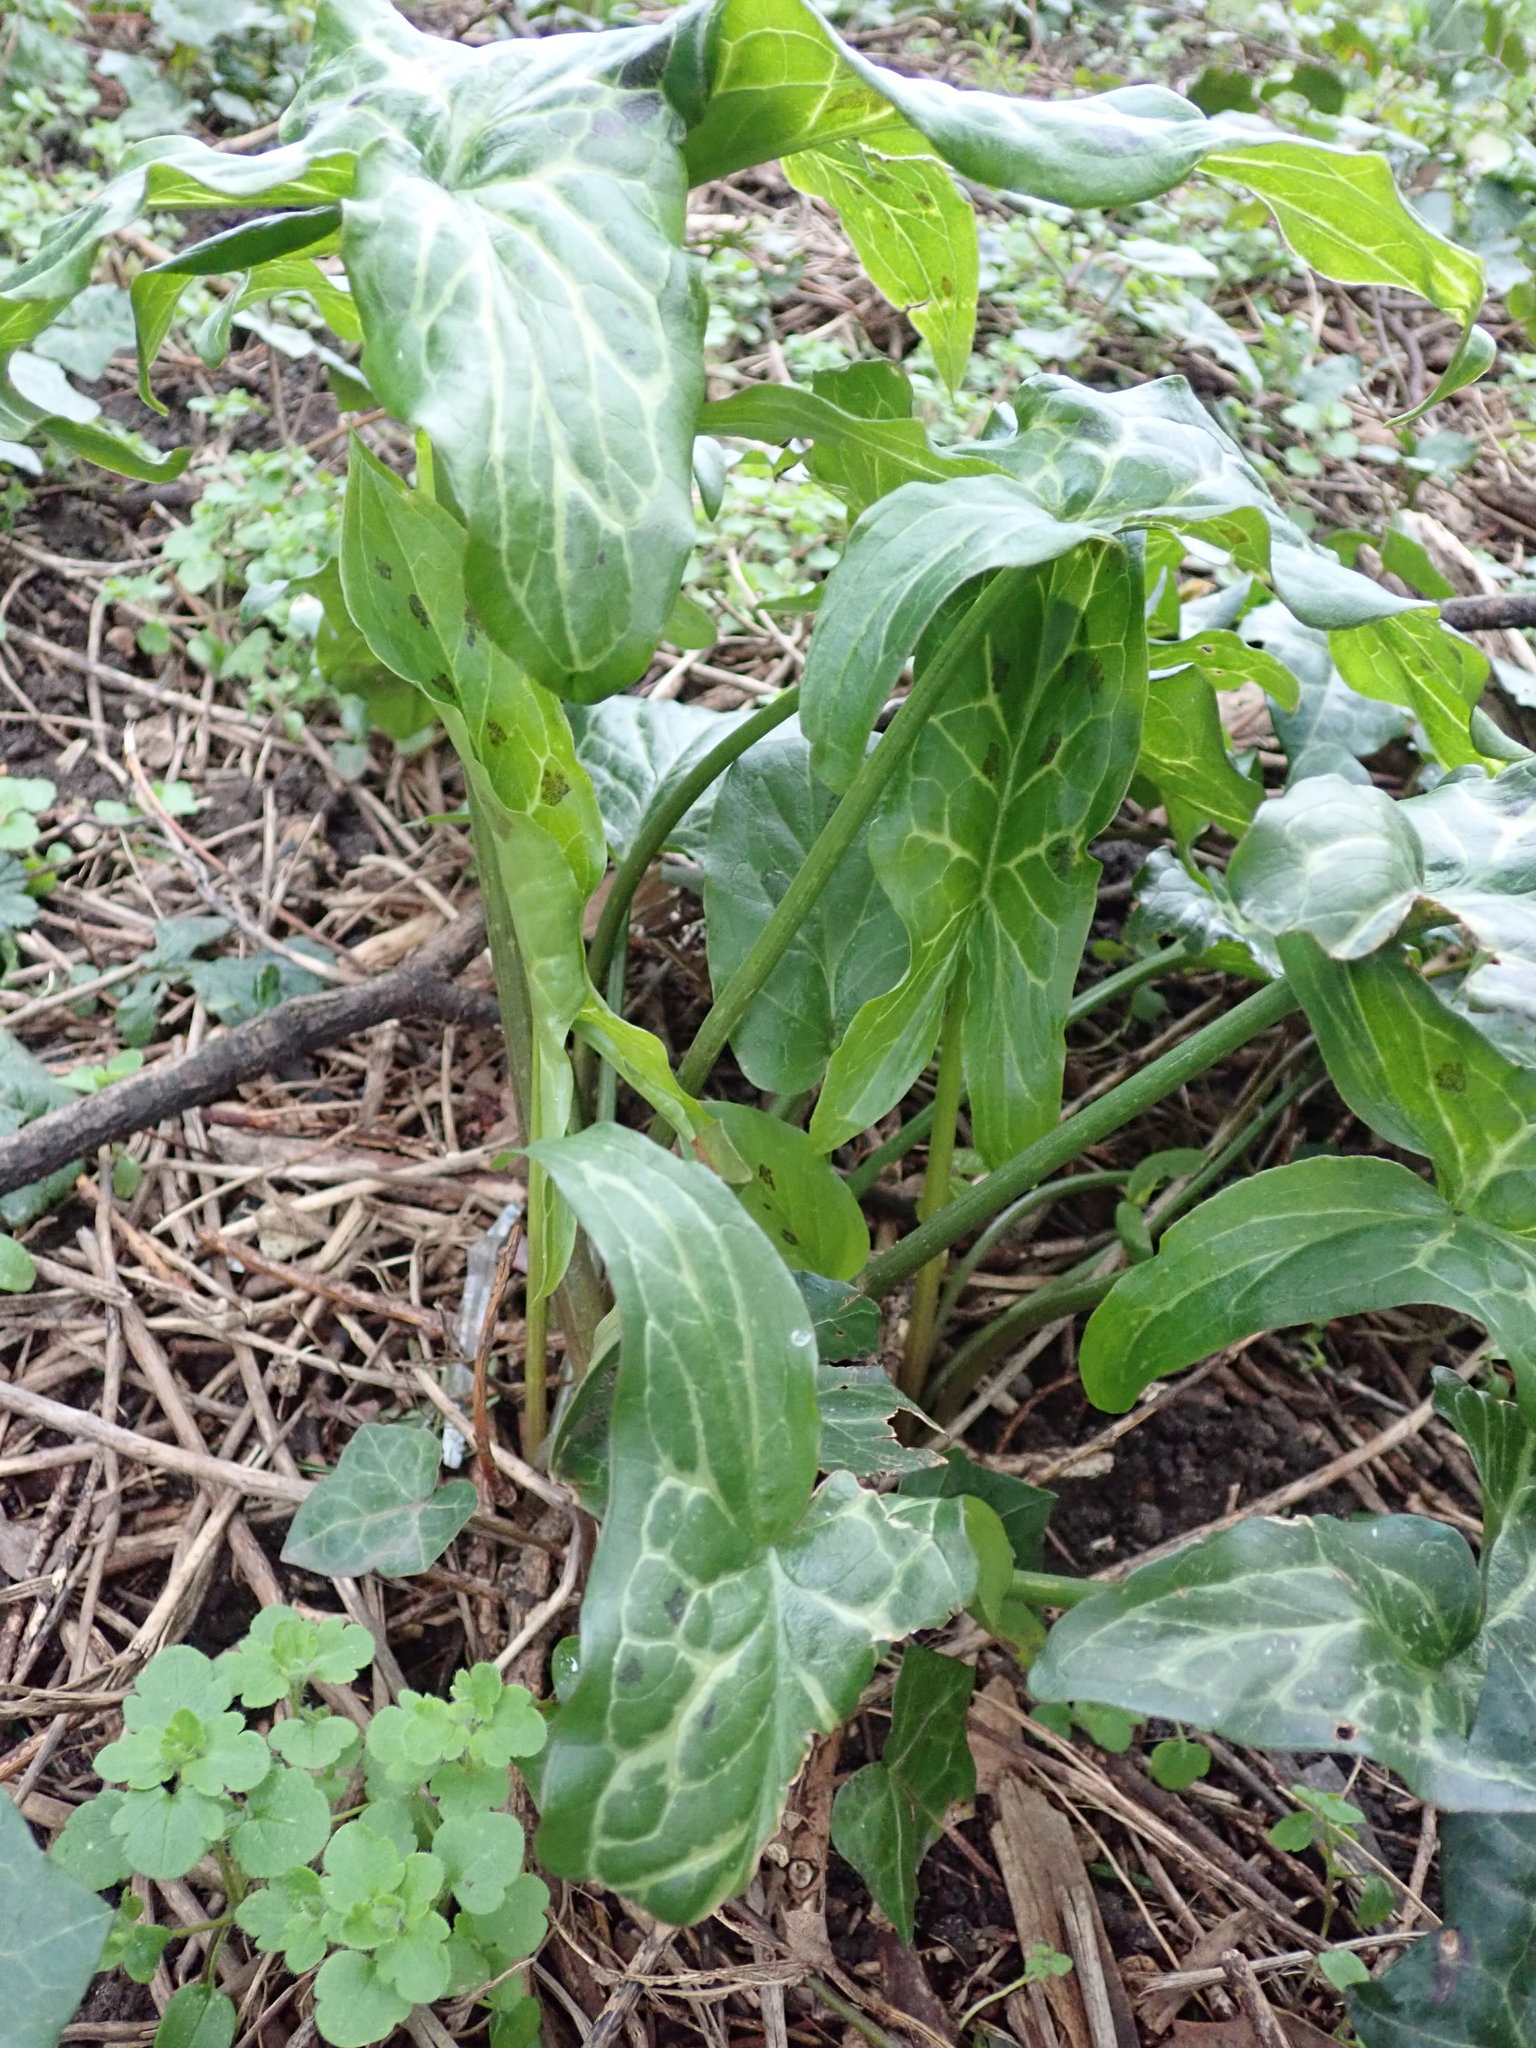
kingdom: Plantae
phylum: Tracheophyta
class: Liliopsida
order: Alismatales
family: Araceae
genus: Arum
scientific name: Arum italicum
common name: Italian lords-and-ladies
